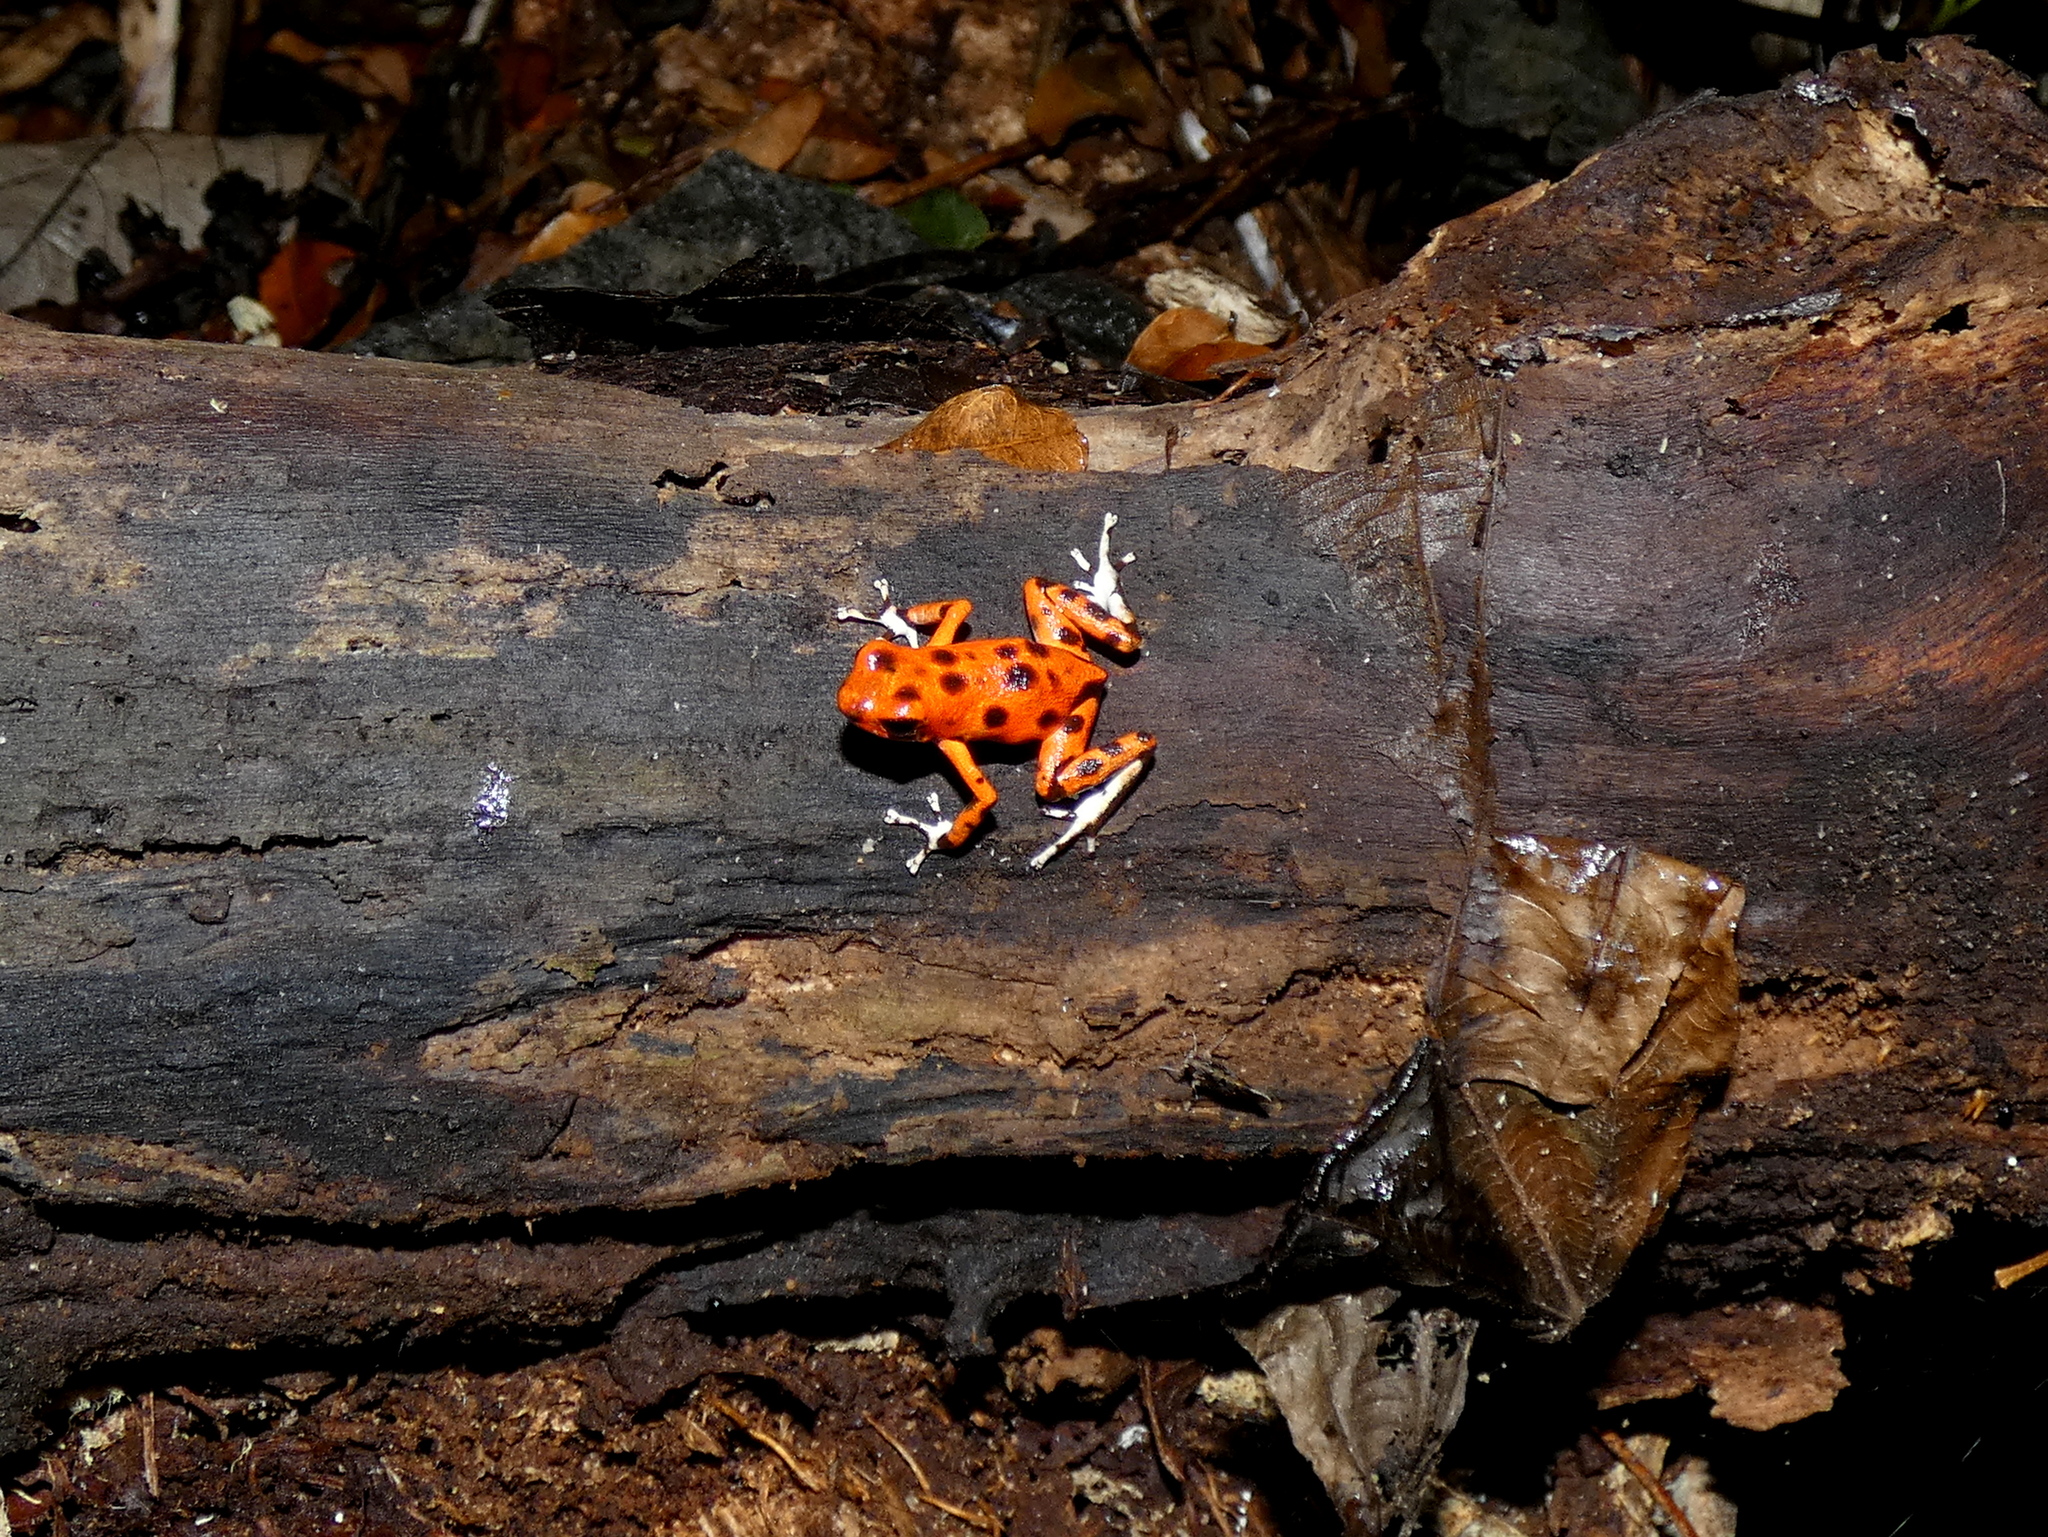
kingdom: Animalia
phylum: Chordata
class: Amphibia
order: Anura
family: Dendrobatidae
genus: Oophaga
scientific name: Oophaga pumilio
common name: Flaming poison frog
